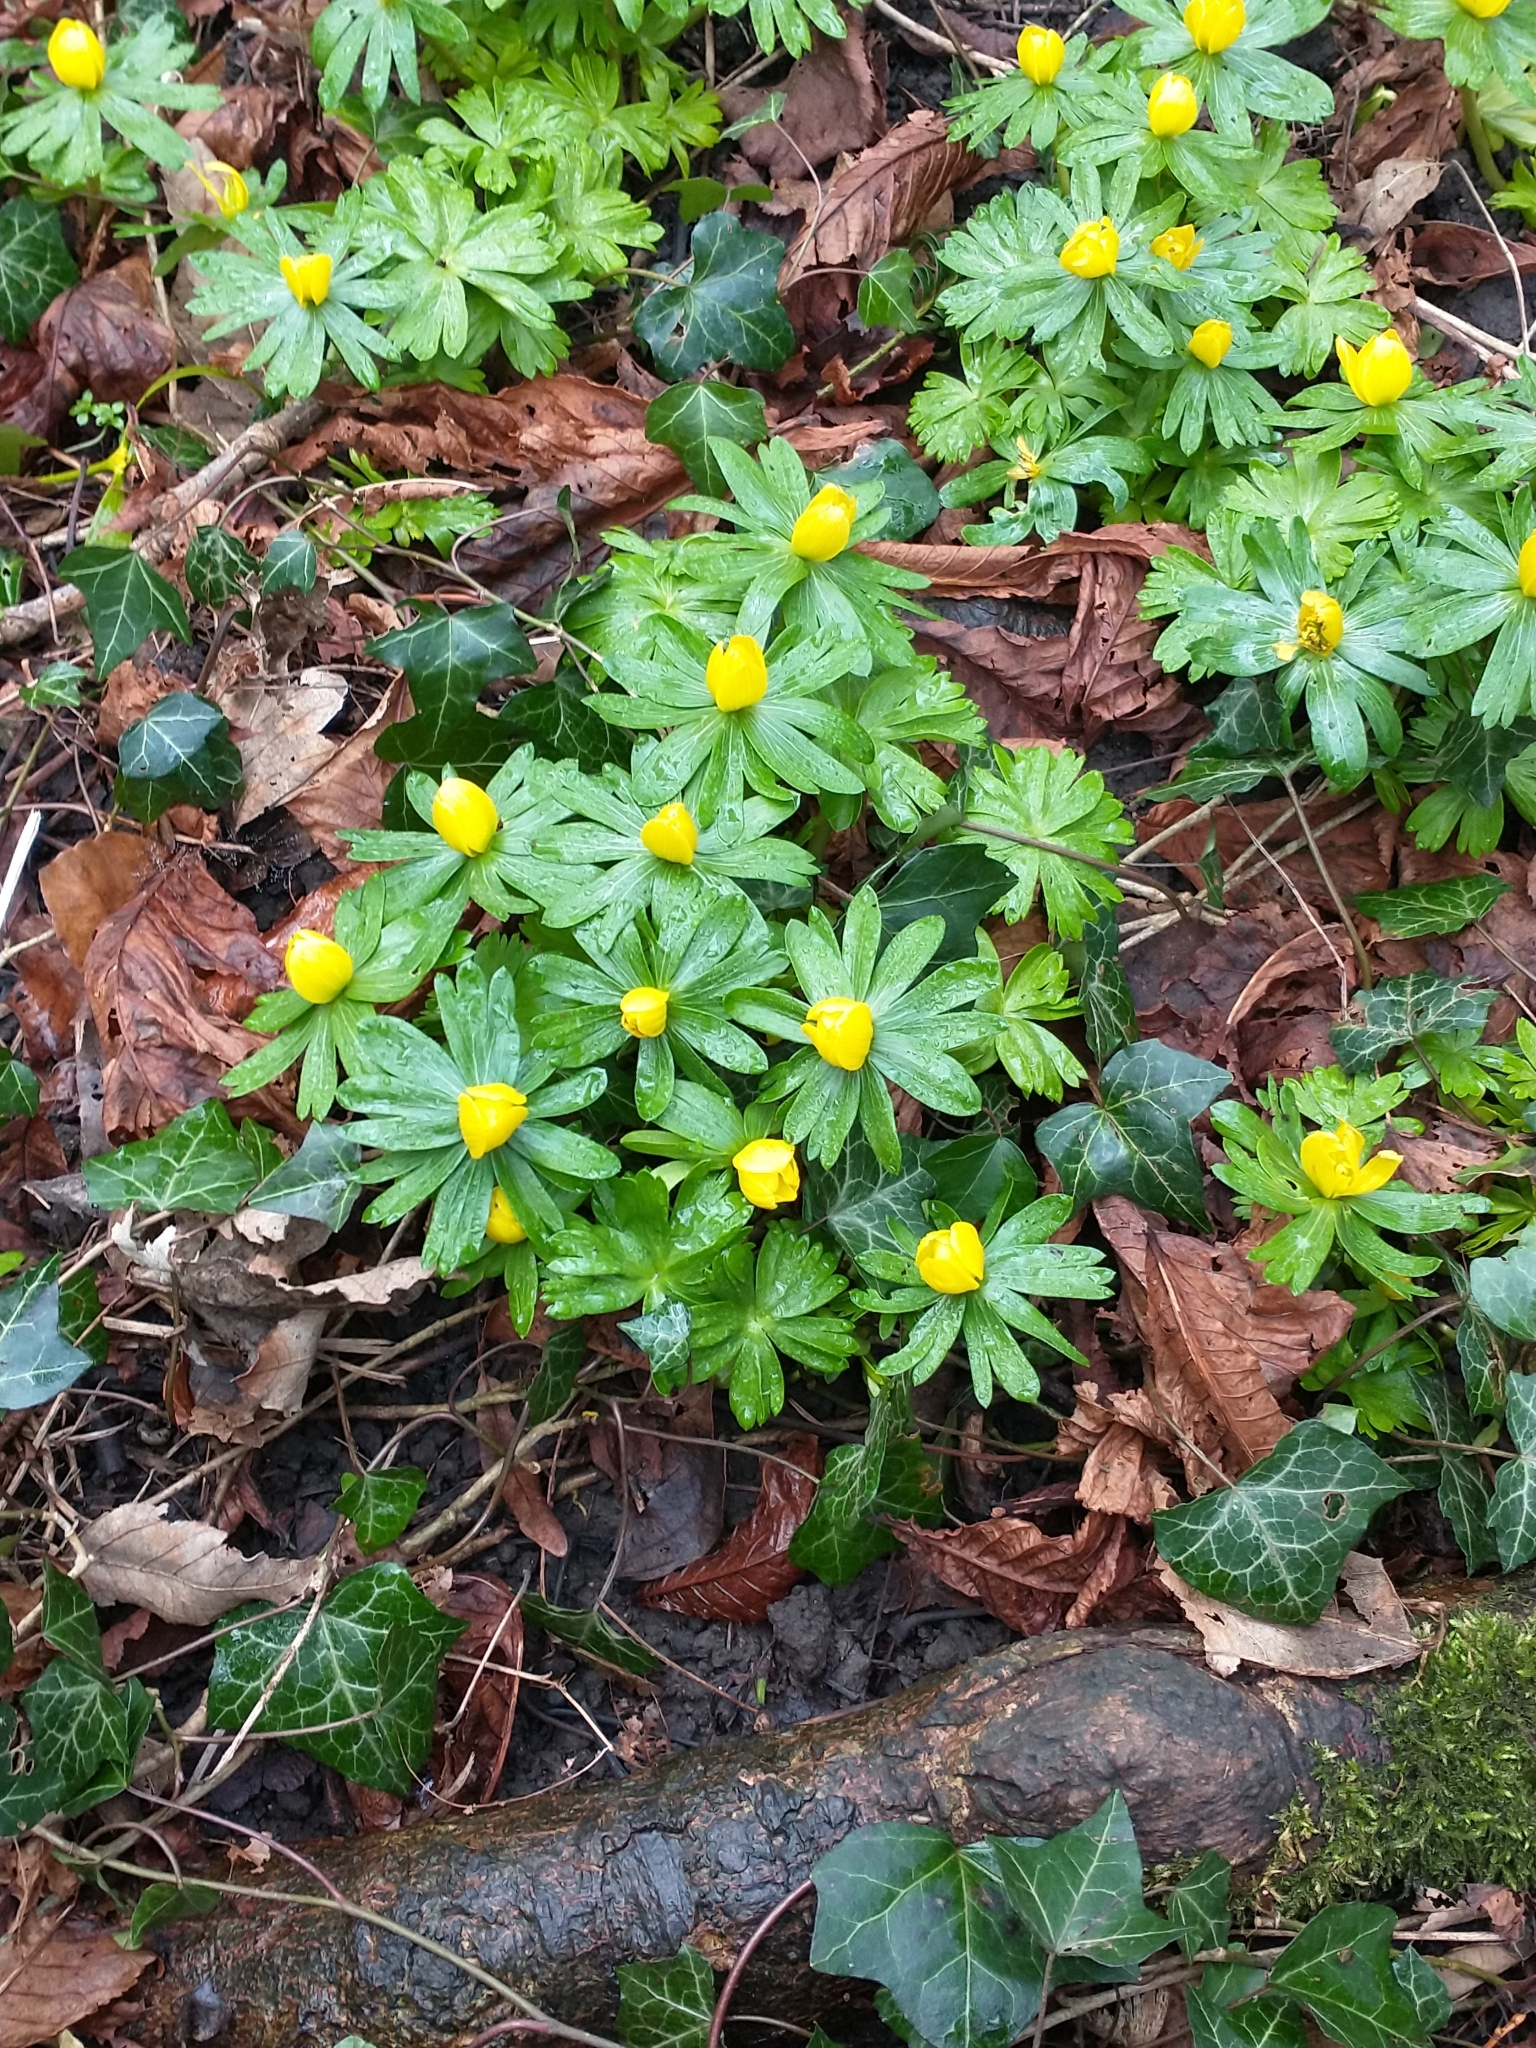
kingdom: Plantae
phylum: Tracheophyta
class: Magnoliopsida
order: Ranunculales
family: Ranunculaceae
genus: Eranthis
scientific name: Eranthis hyemalis
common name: Winter aconite
